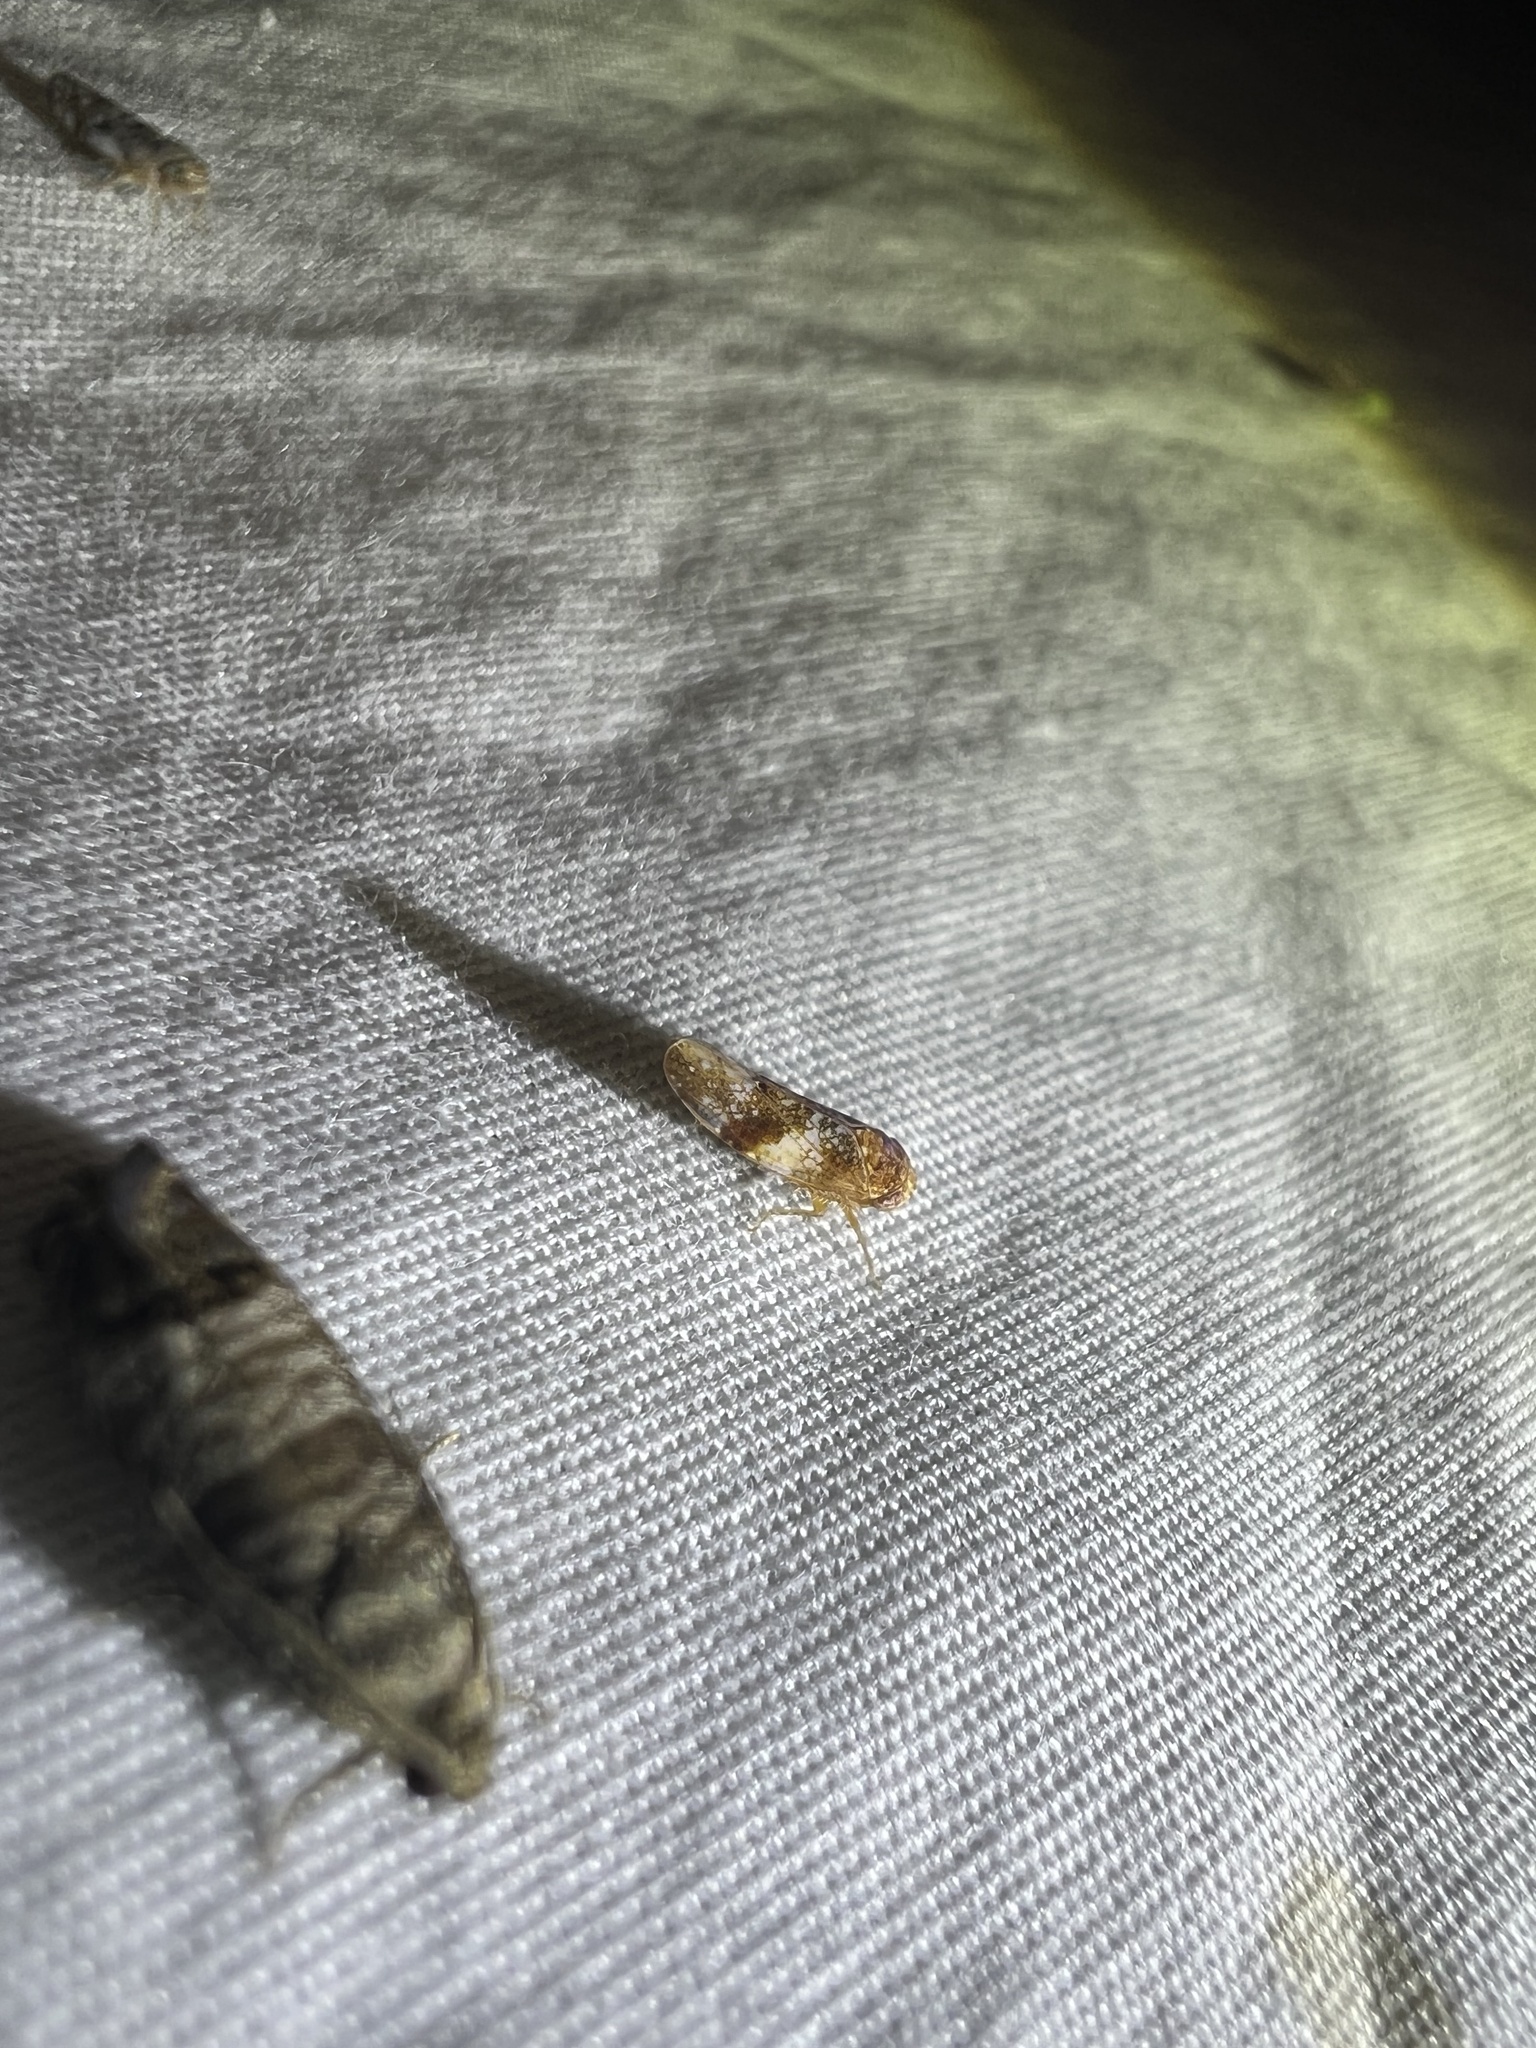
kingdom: Animalia
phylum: Arthropoda
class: Insecta
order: Hemiptera
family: Cicadellidae
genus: Norvellina
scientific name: Norvellina chenopodii
